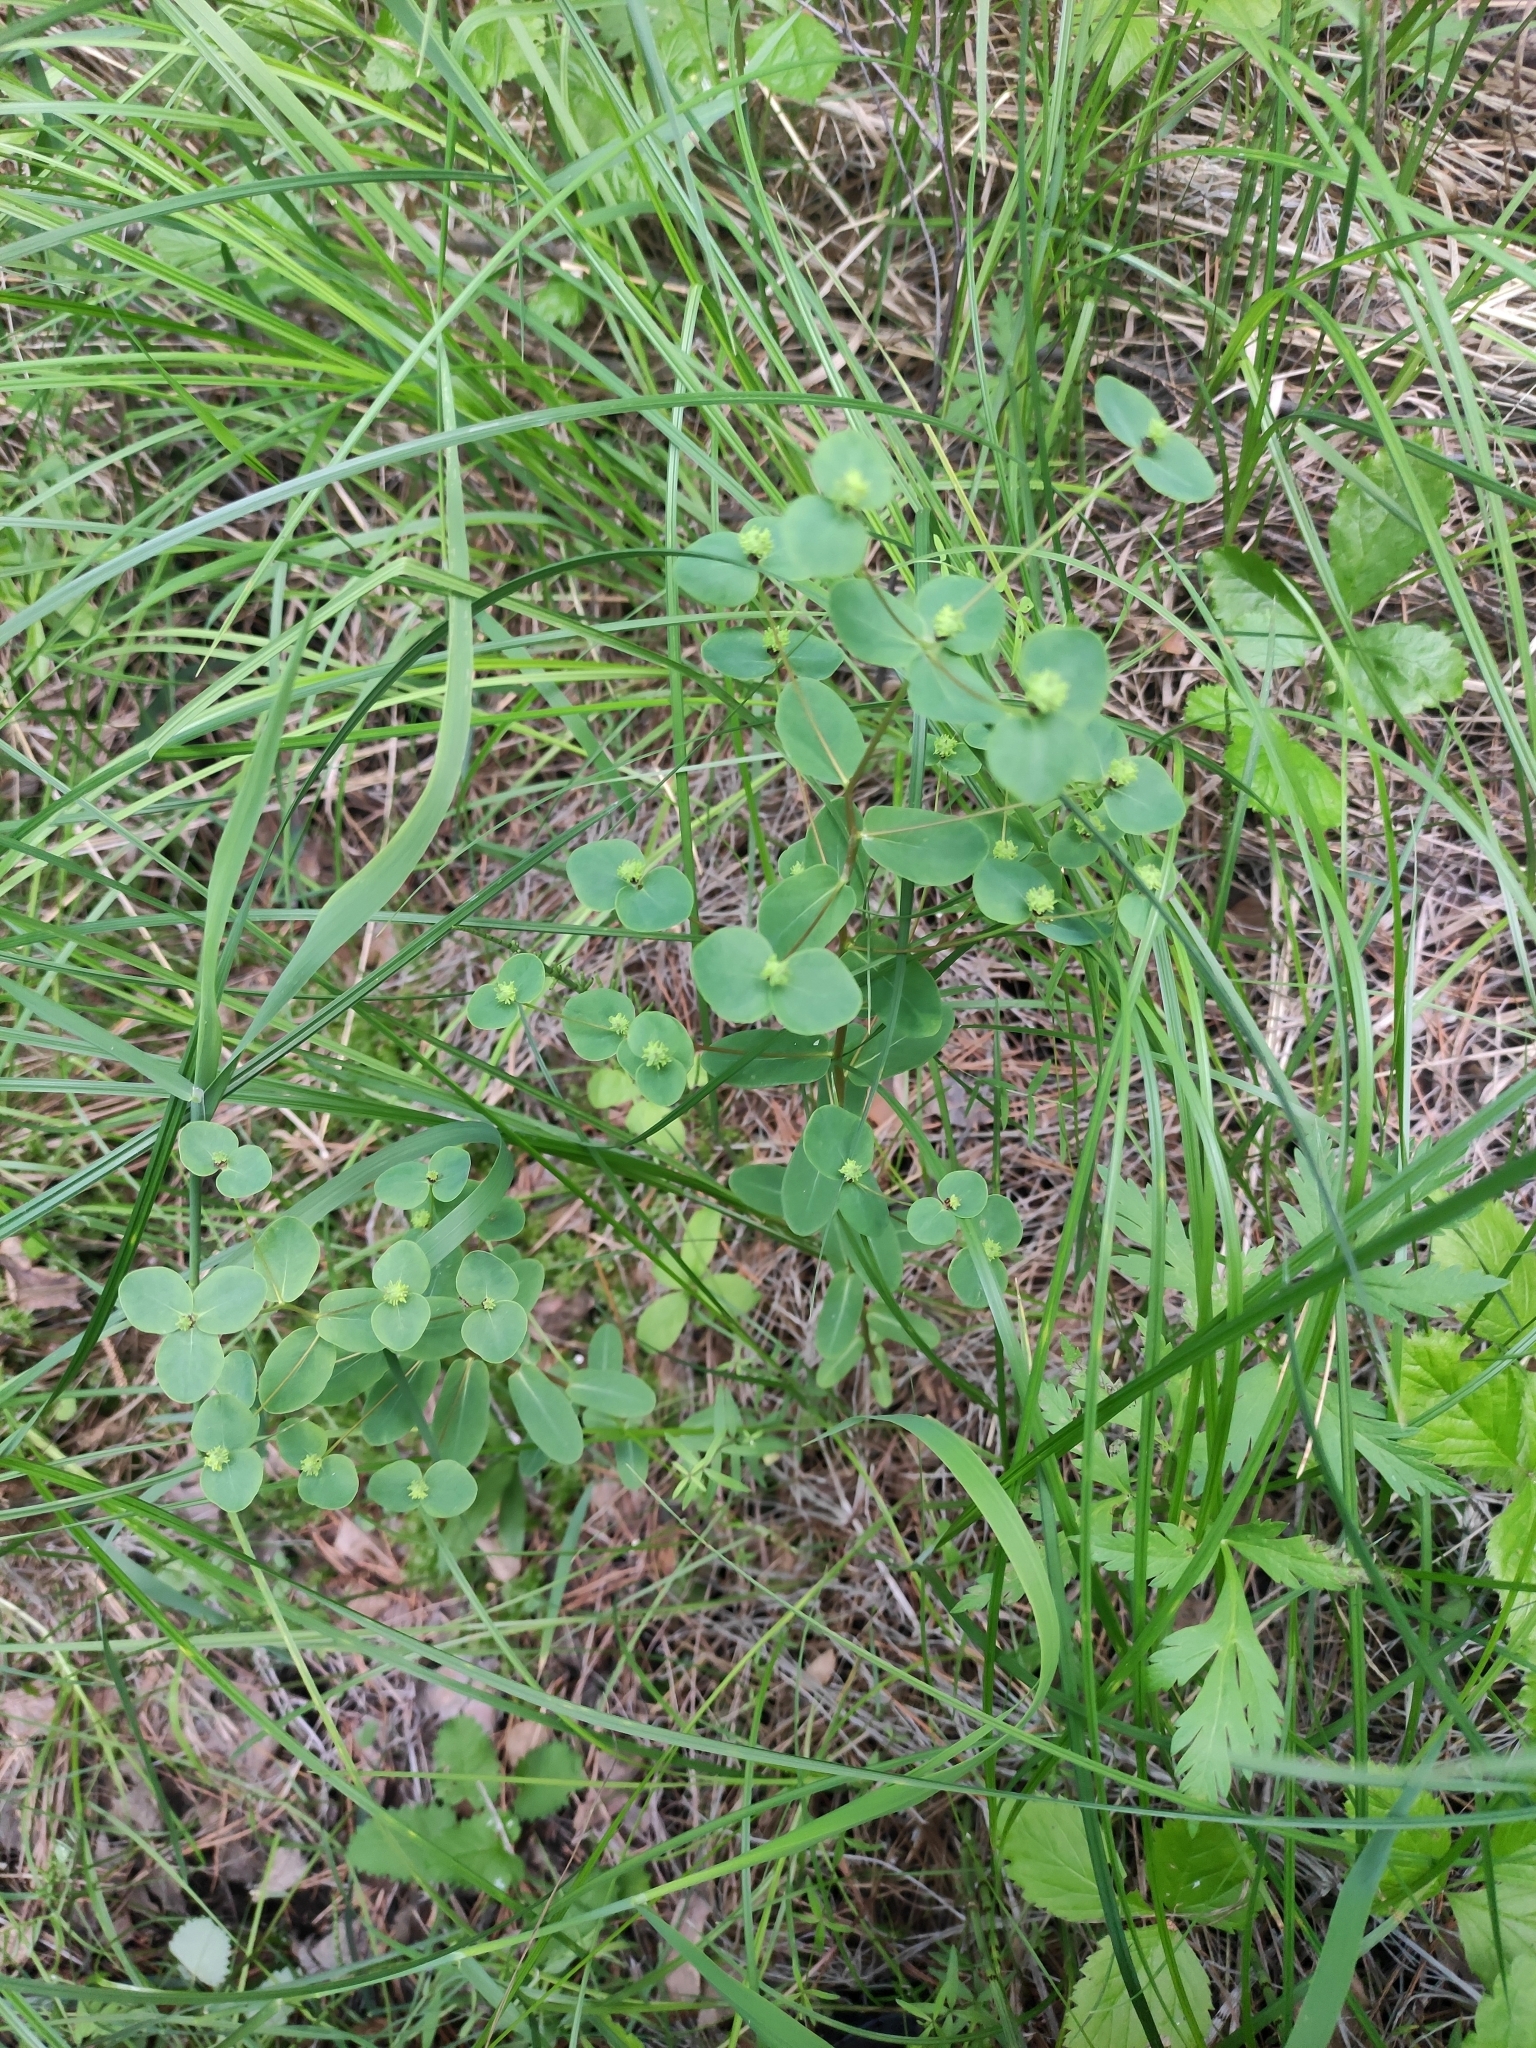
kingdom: Plantae
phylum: Tracheophyta
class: Magnoliopsida
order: Malpighiales
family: Euphorbiaceae
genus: Euphorbia
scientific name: Euphorbia jenisseiensis
